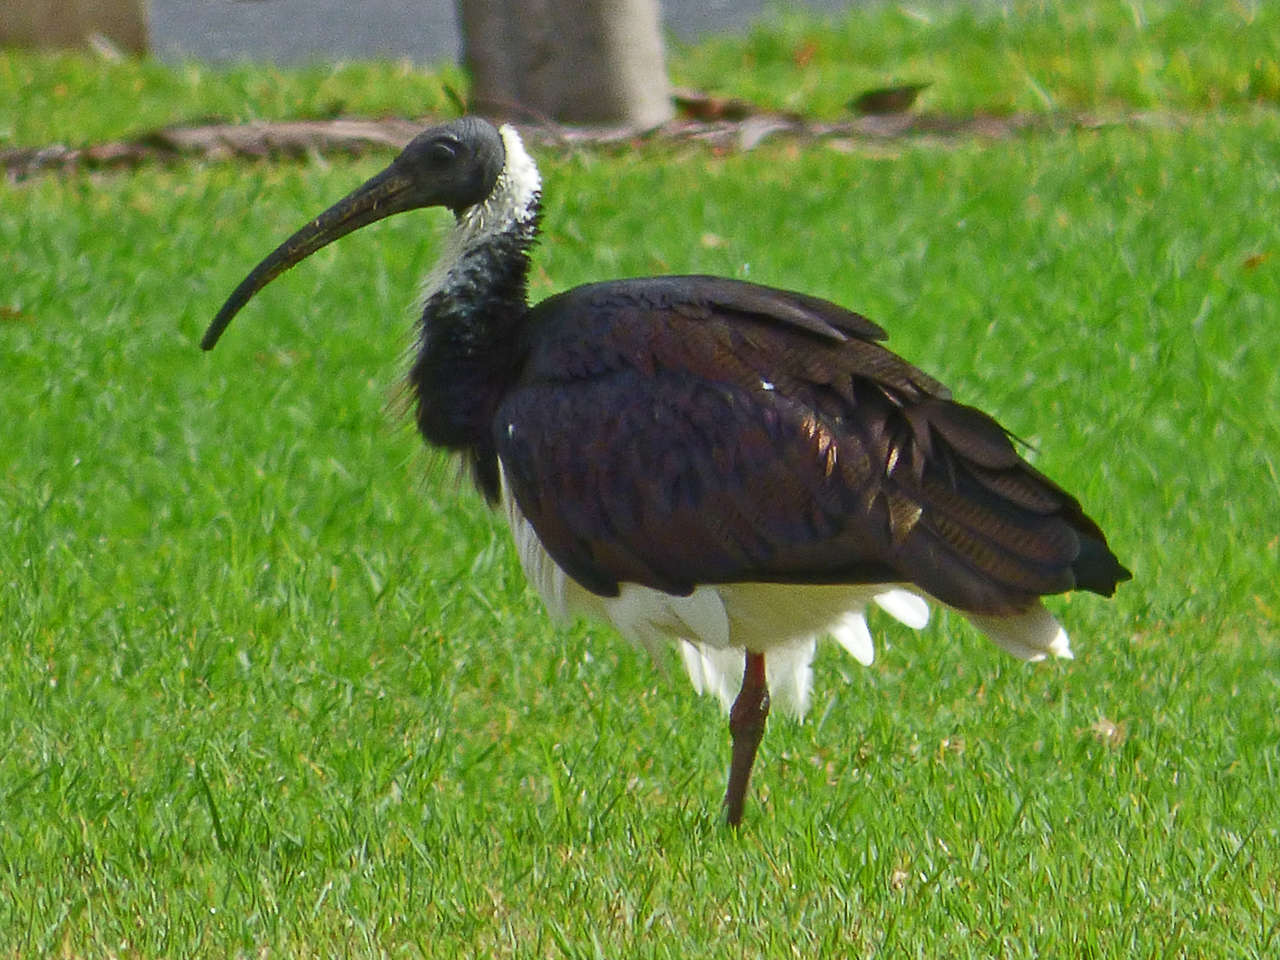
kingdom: Animalia
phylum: Chordata
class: Aves
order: Pelecaniformes
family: Threskiornithidae
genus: Threskiornis
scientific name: Threskiornis spinicollis
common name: Straw-necked ibis
